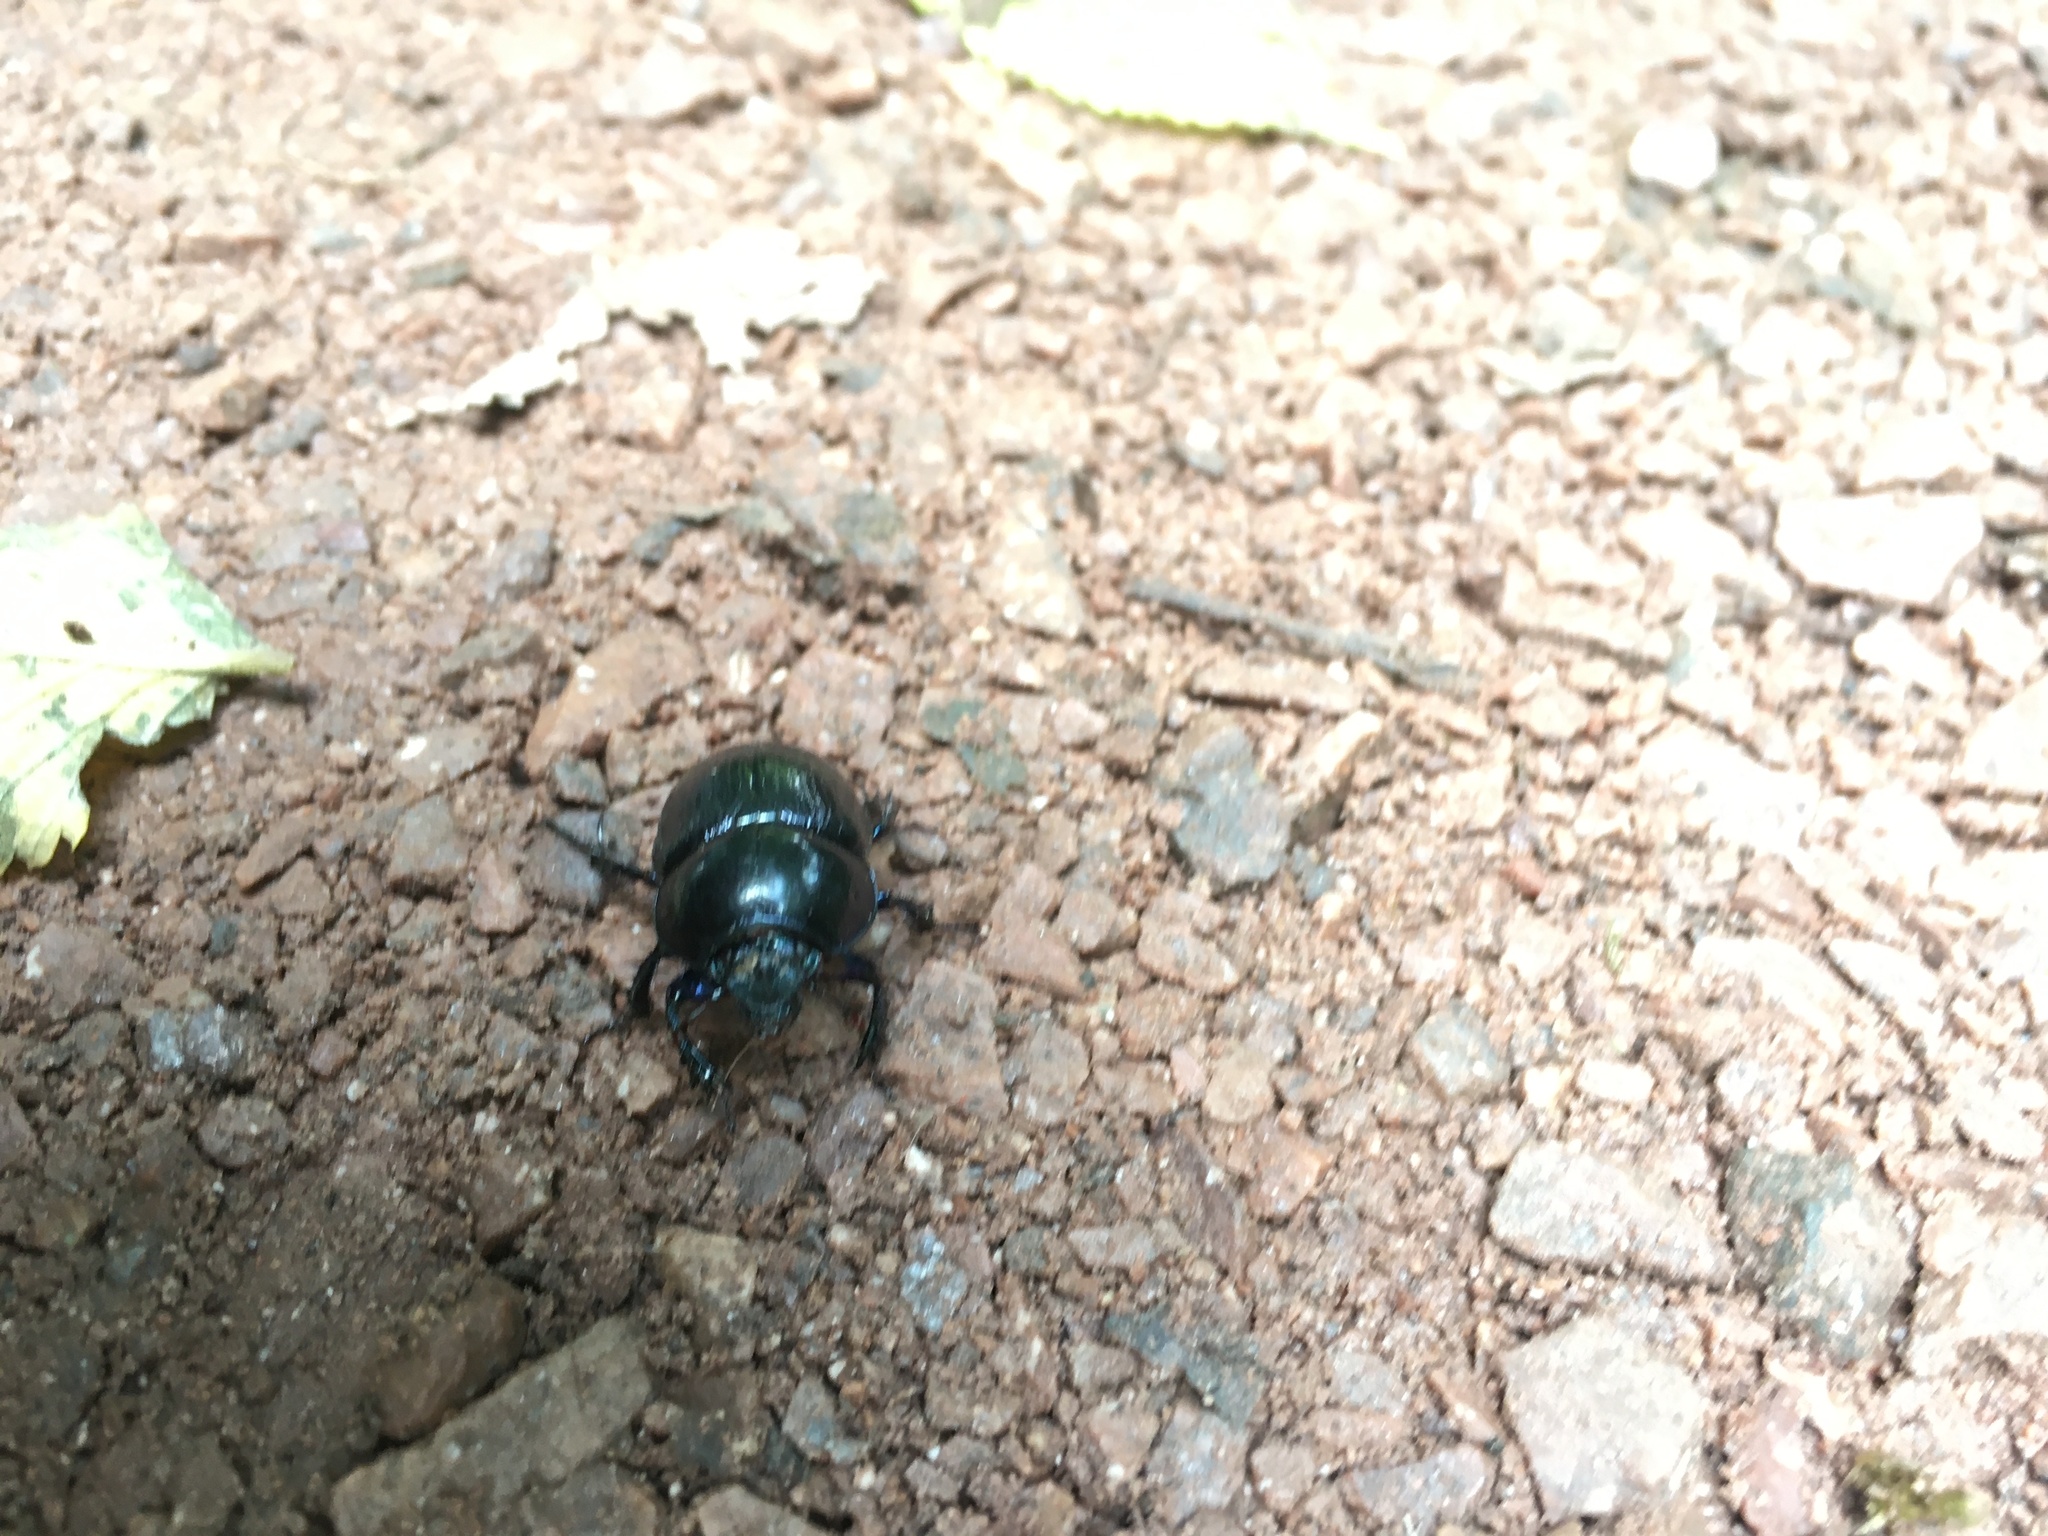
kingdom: Animalia
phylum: Arthropoda
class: Insecta
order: Coleoptera
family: Geotrupidae
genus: Anoplotrupes
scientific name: Anoplotrupes stercorosus
